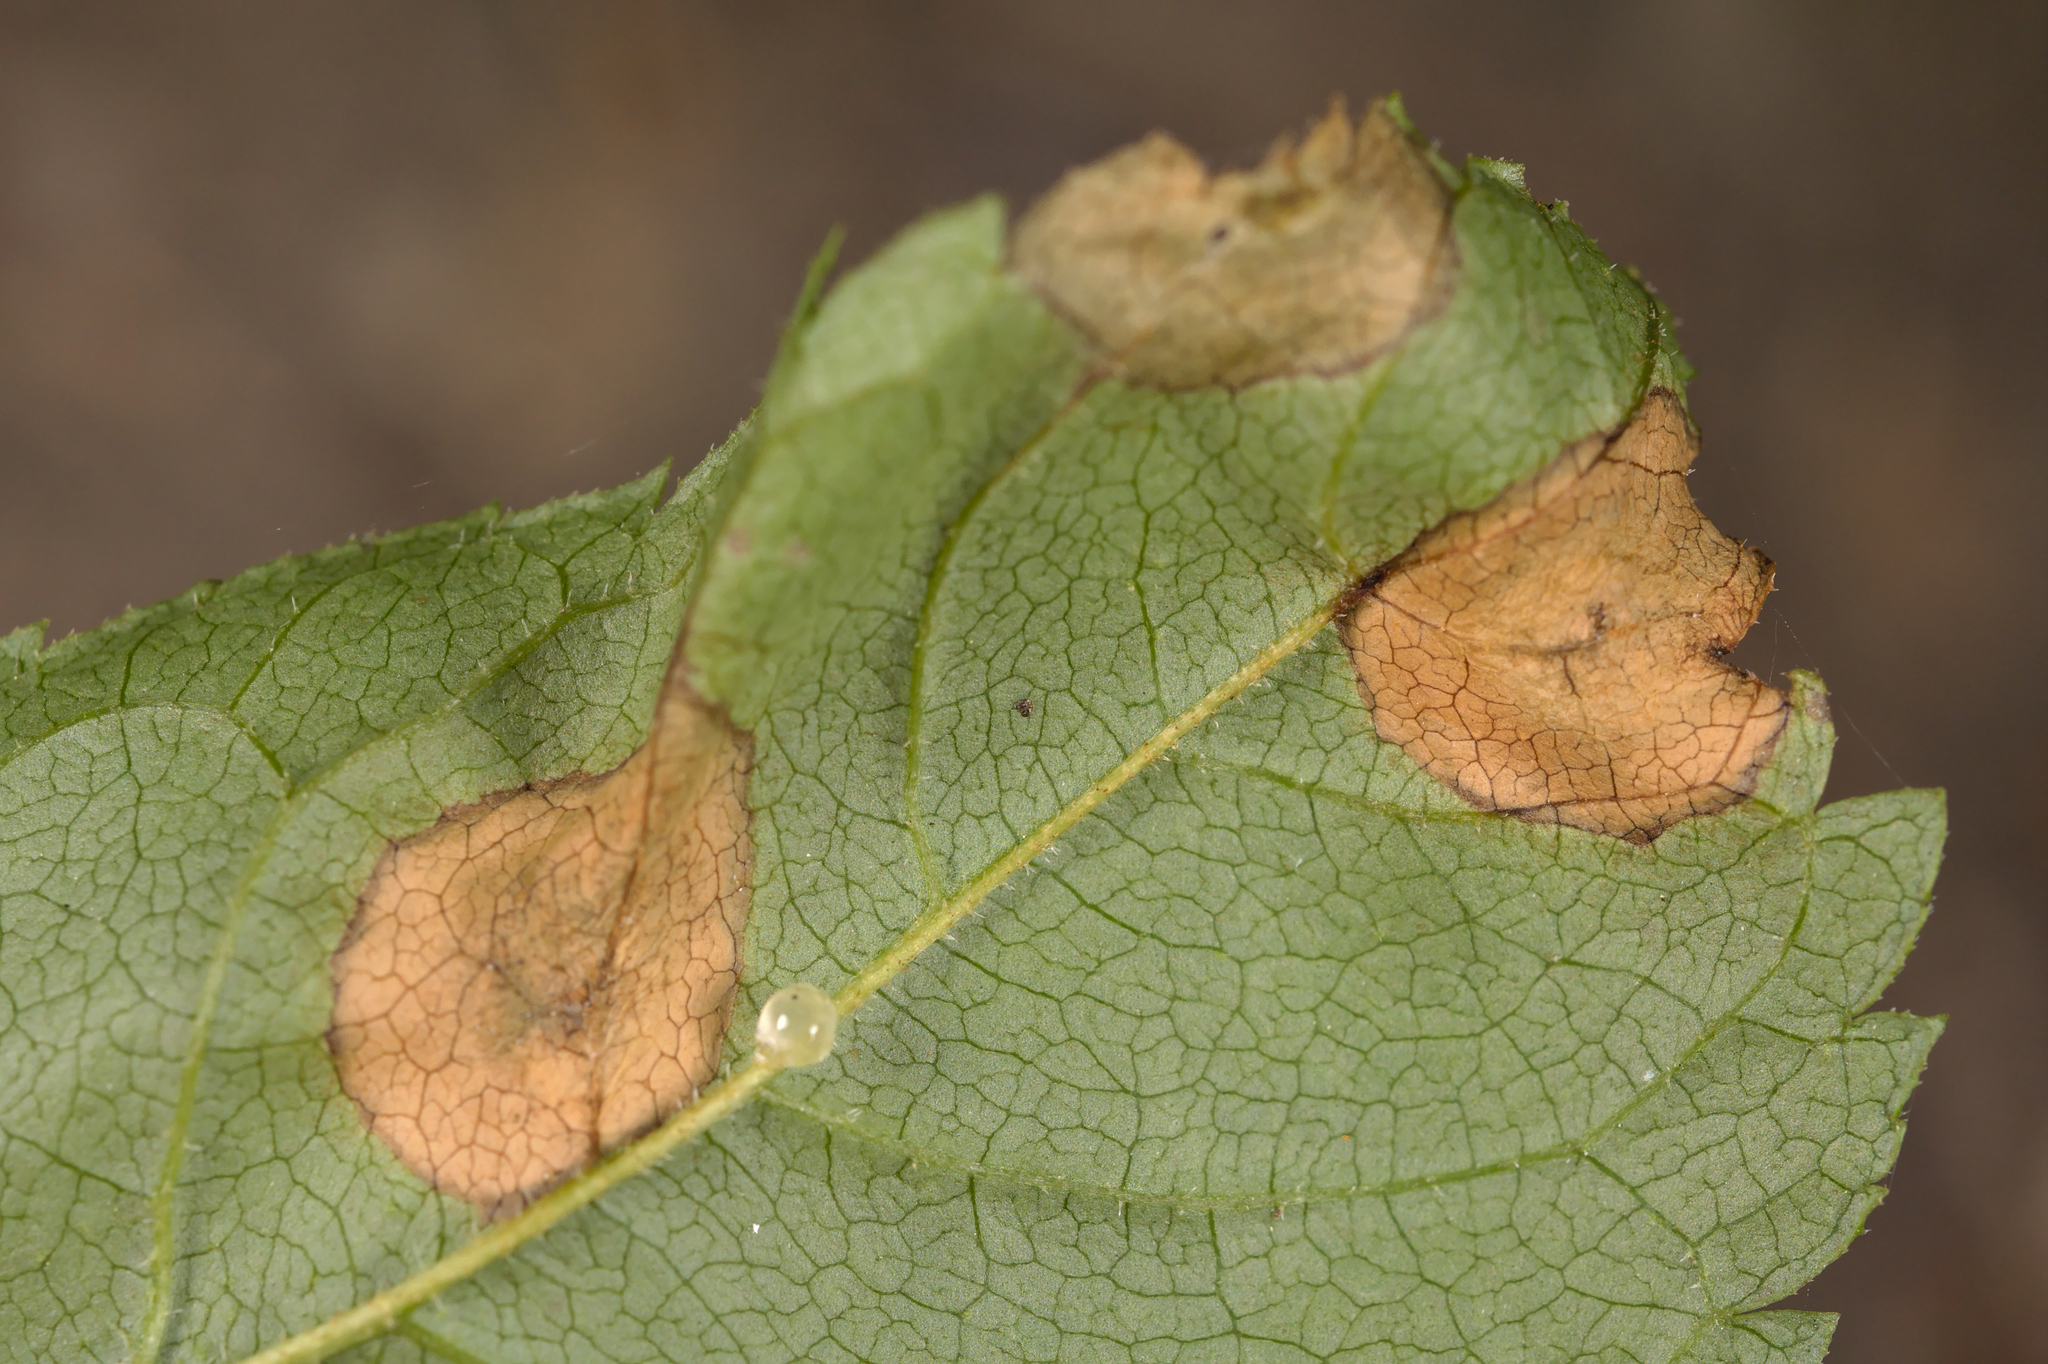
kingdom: Animalia
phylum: Arthropoda
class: Insecta
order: Diptera
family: Cecidomyiidae
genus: Dasineura
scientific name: Dasineura fraxinea
